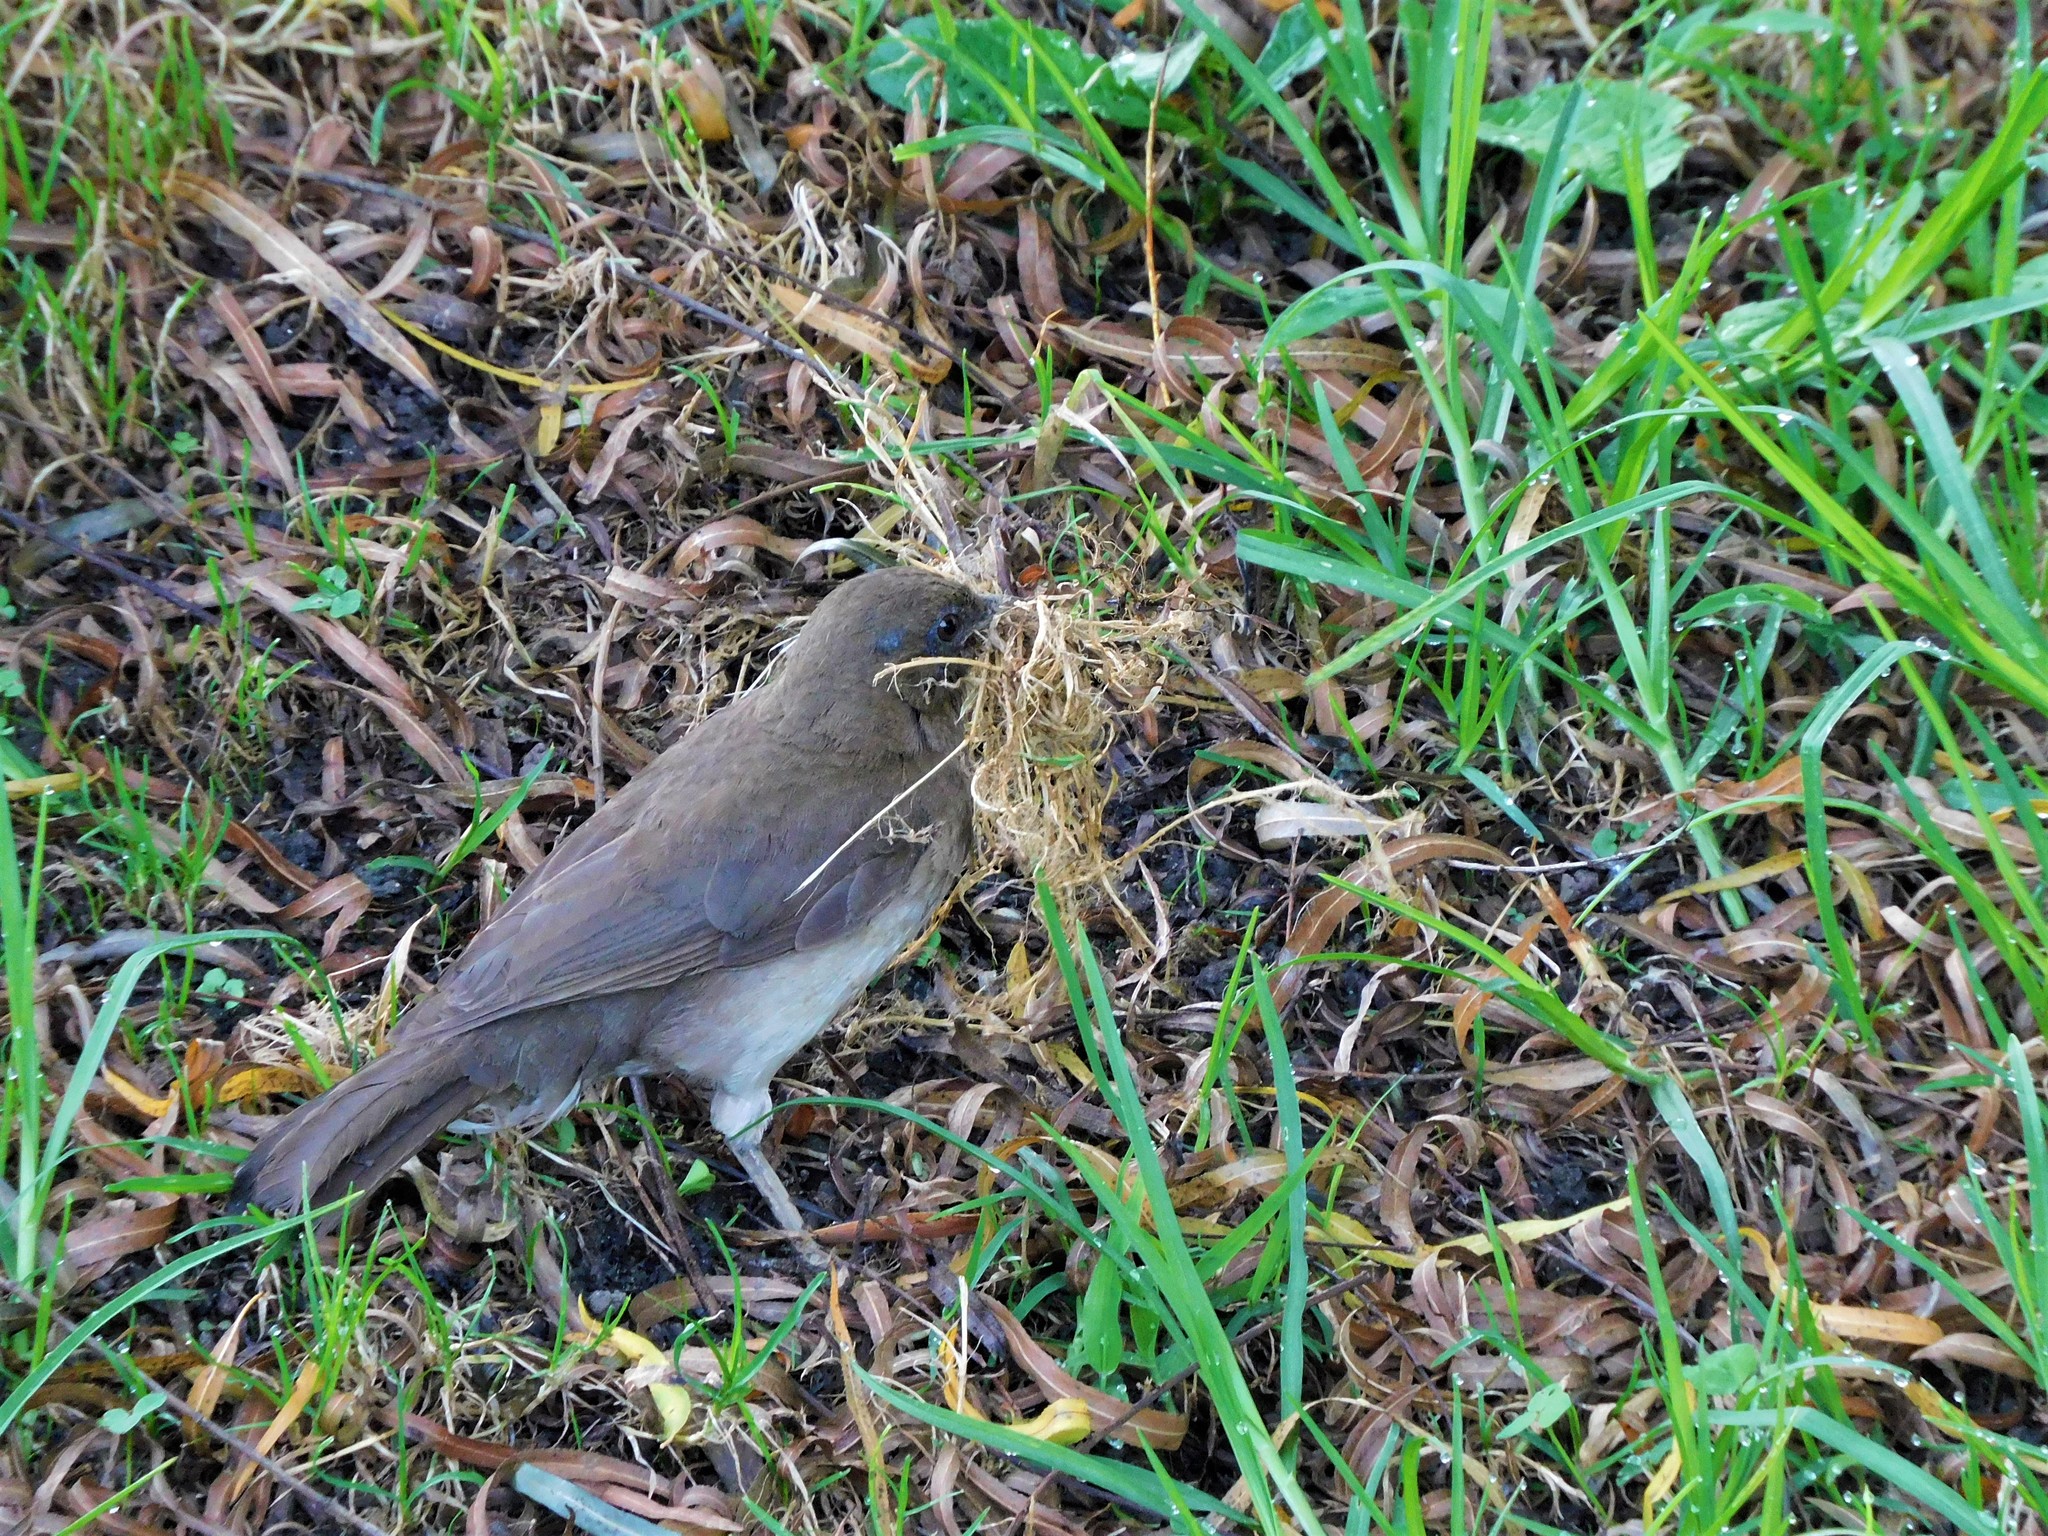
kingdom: Animalia
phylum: Chordata
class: Aves
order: Passeriformes
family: Turdidae
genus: Turdus
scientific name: Turdus ignobilis
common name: Black-billed thrush
